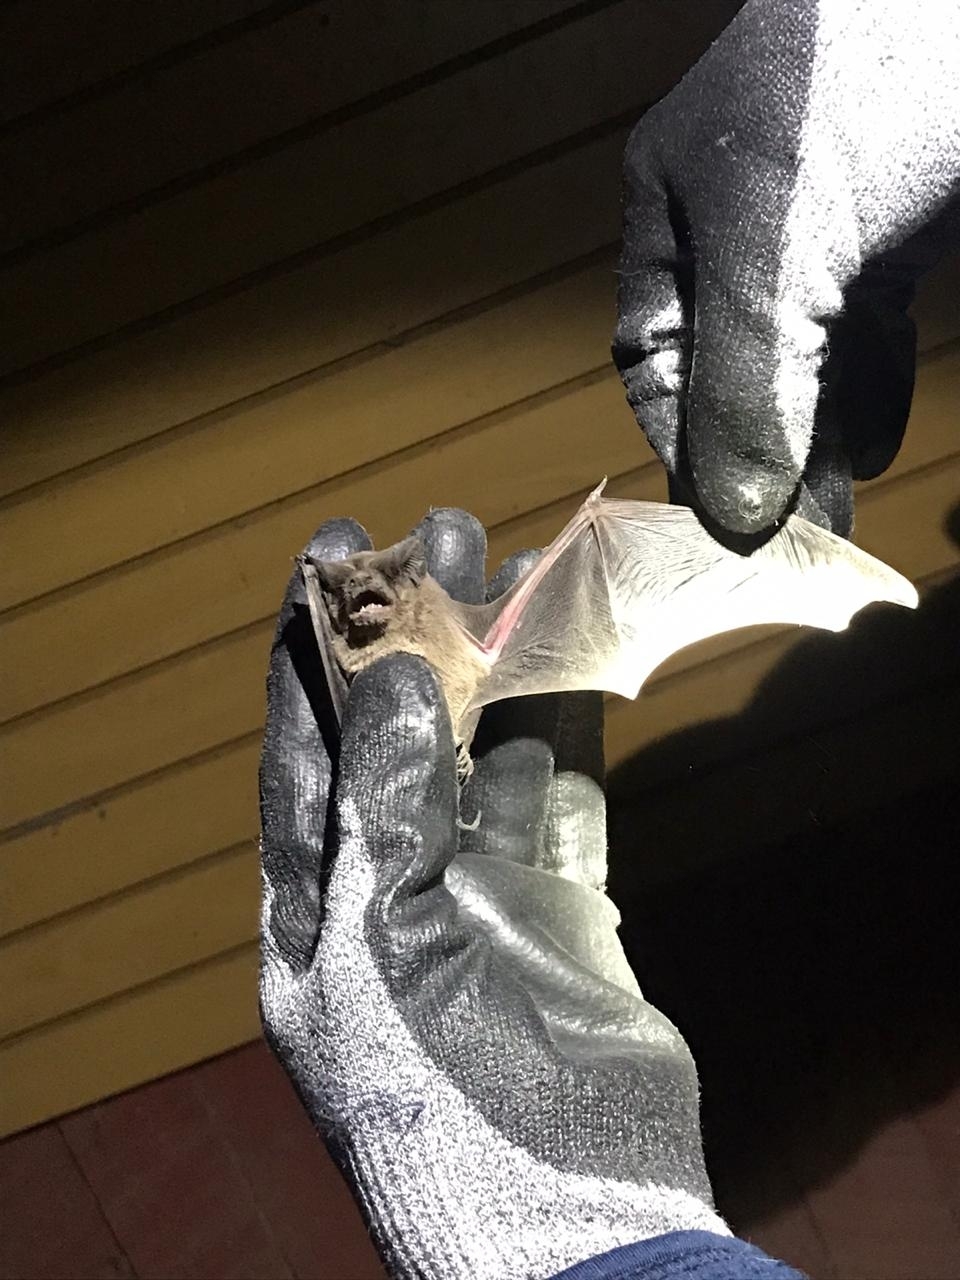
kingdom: Animalia
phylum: Chordata
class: Mammalia
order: Chiroptera
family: Molossidae
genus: Tadarida
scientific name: Tadarida brasiliensis
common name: Mexican free-tailed bat
